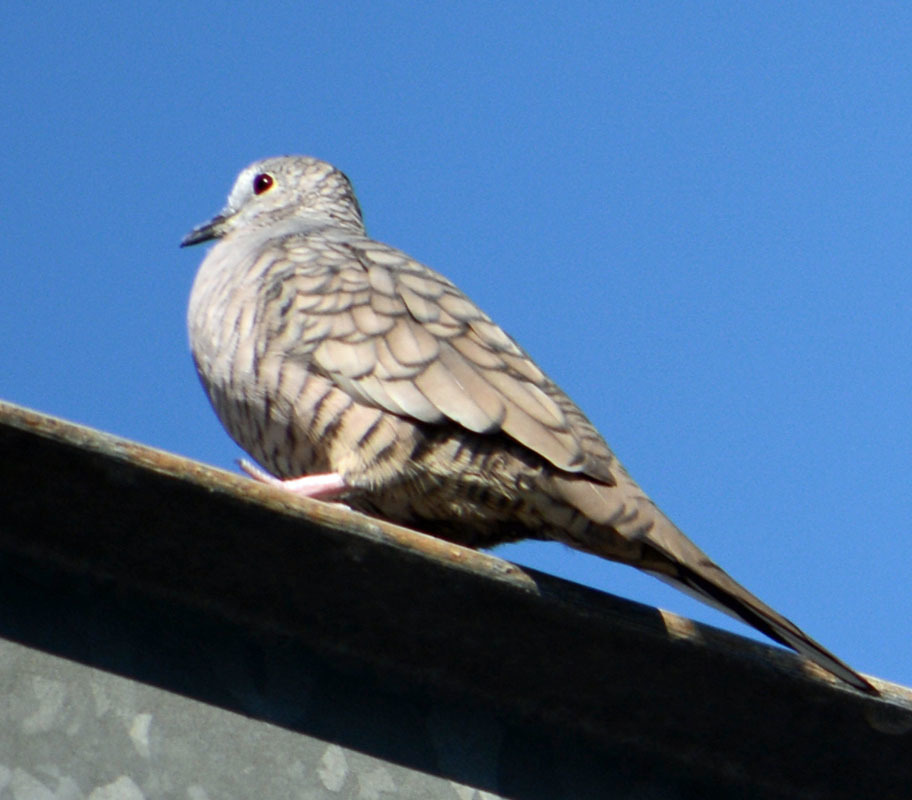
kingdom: Animalia
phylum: Chordata
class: Aves
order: Columbiformes
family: Columbidae
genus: Columbina
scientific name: Columbina inca
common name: Inca dove
